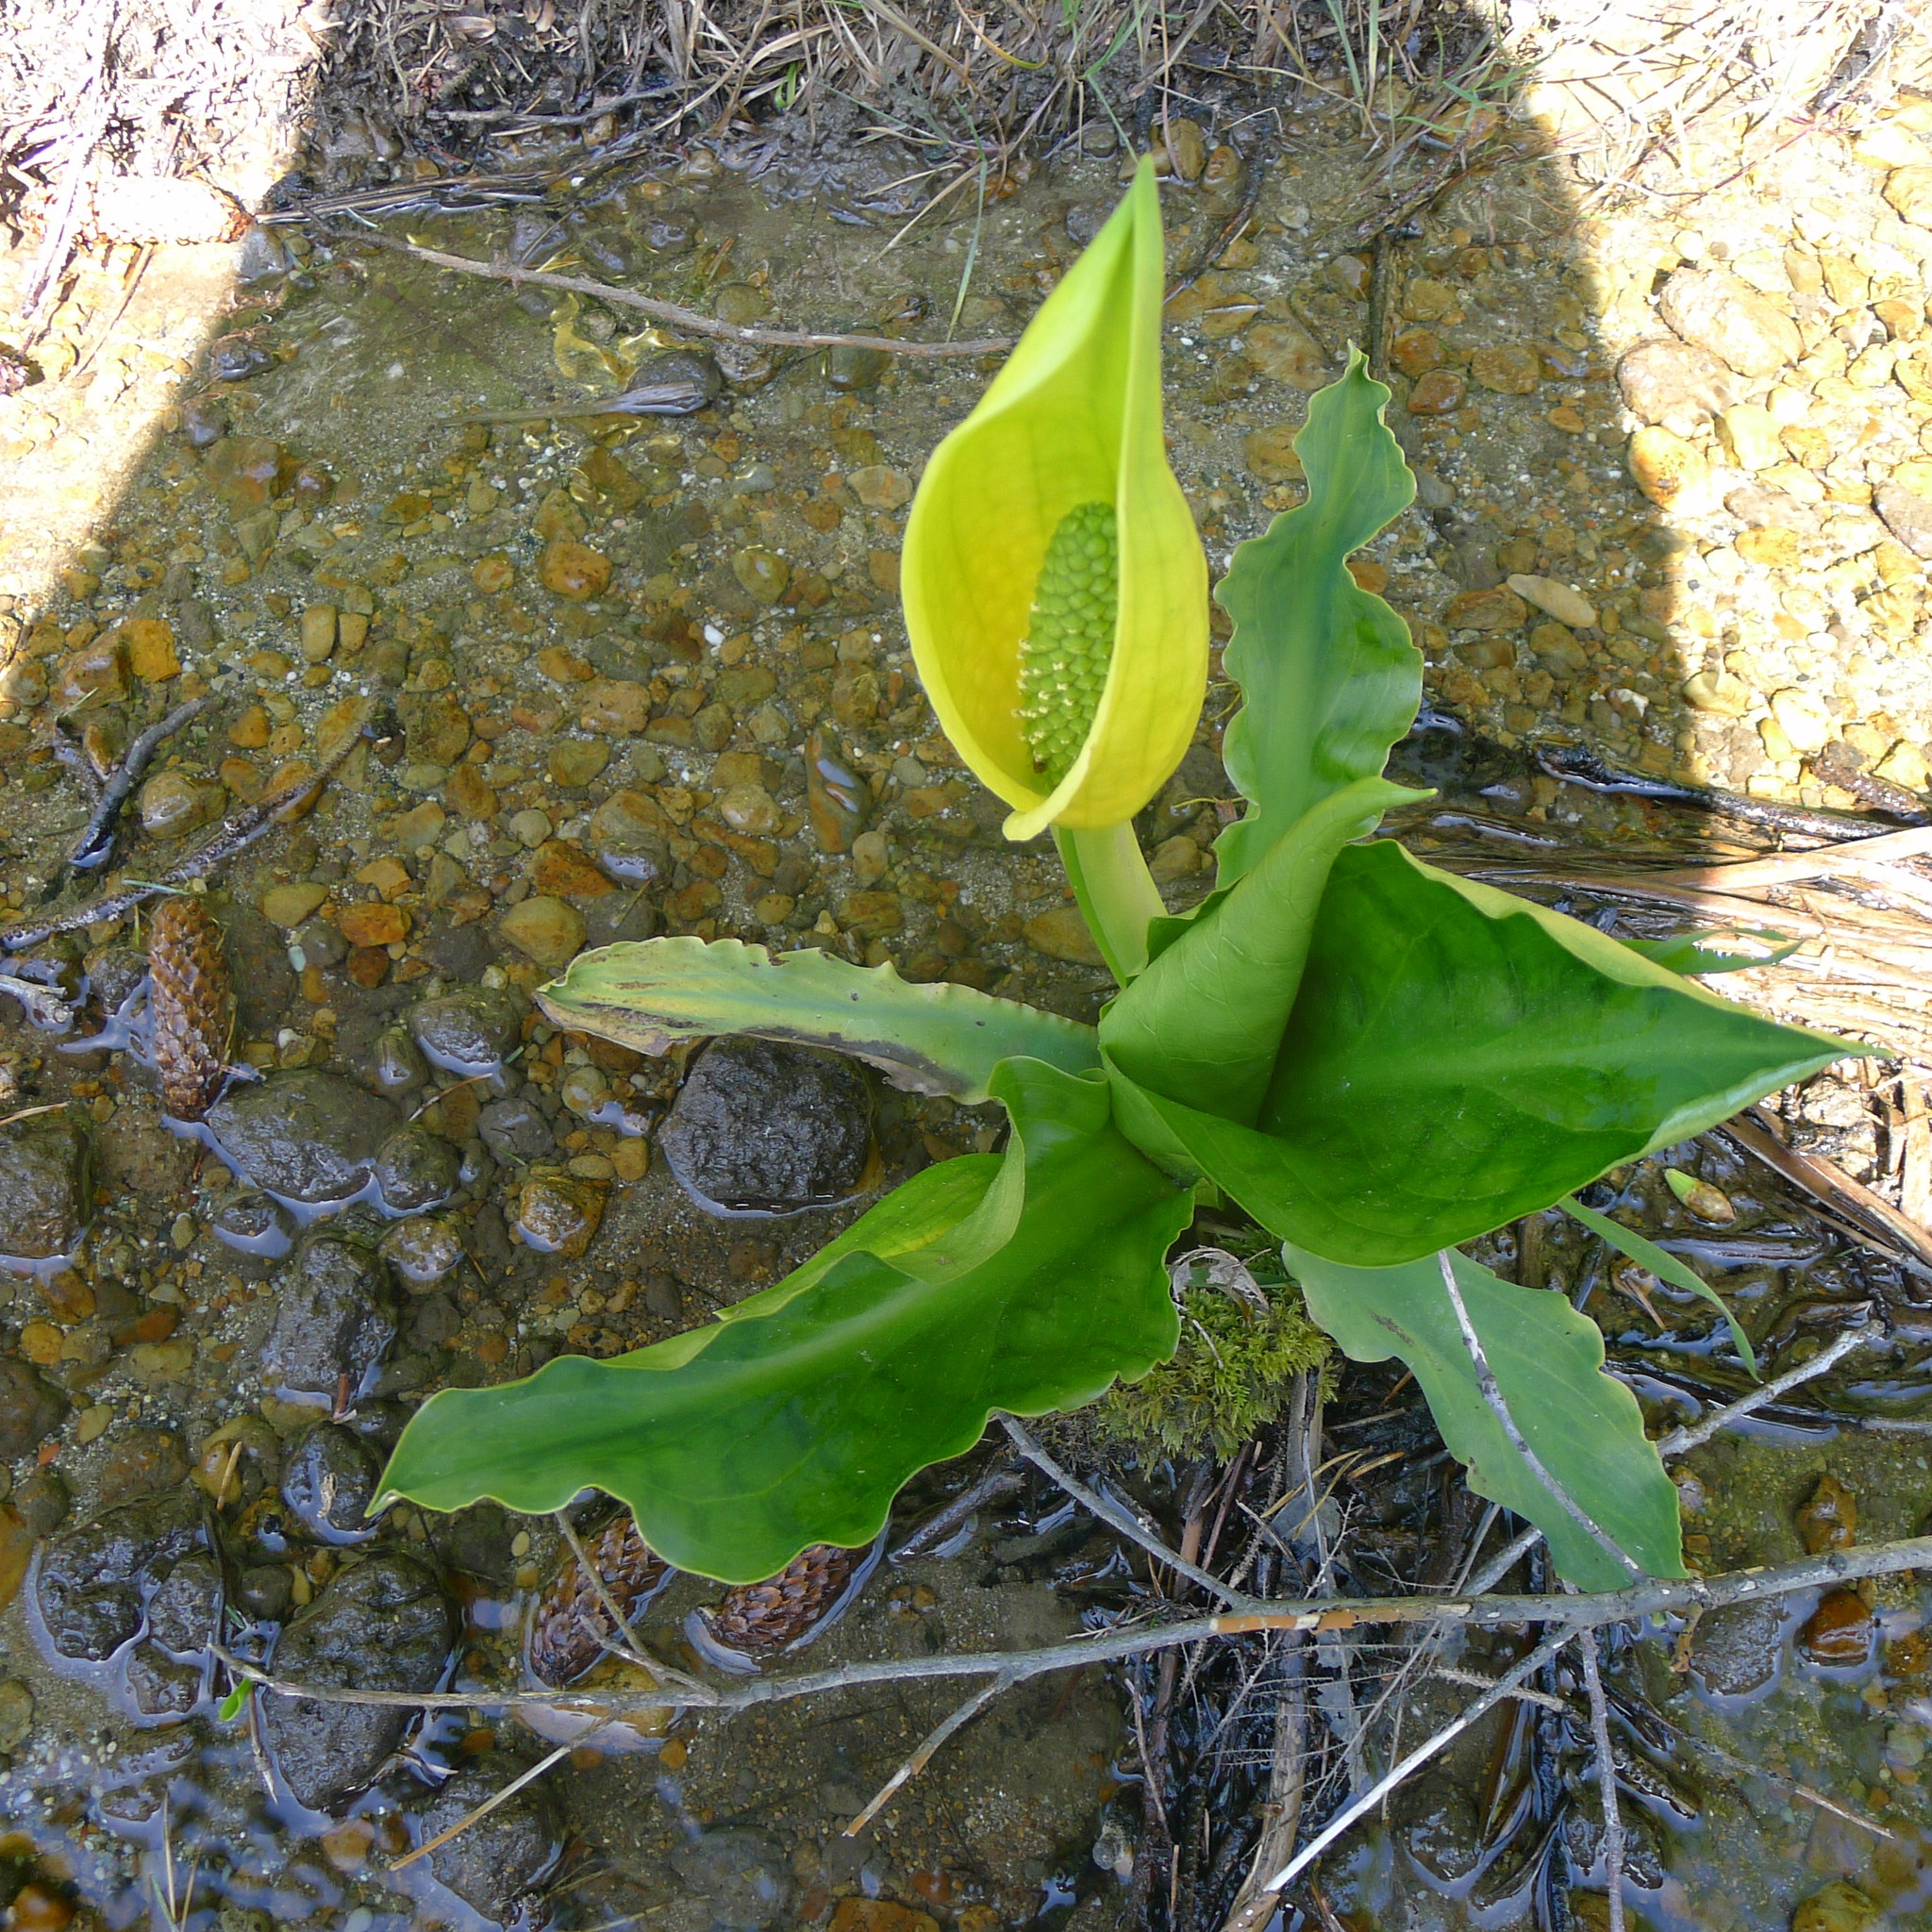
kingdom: Plantae
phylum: Tracheophyta
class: Liliopsida
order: Alismatales
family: Araceae
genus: Lysichiton
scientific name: Lysichiton americanus
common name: American skunk cabbage
